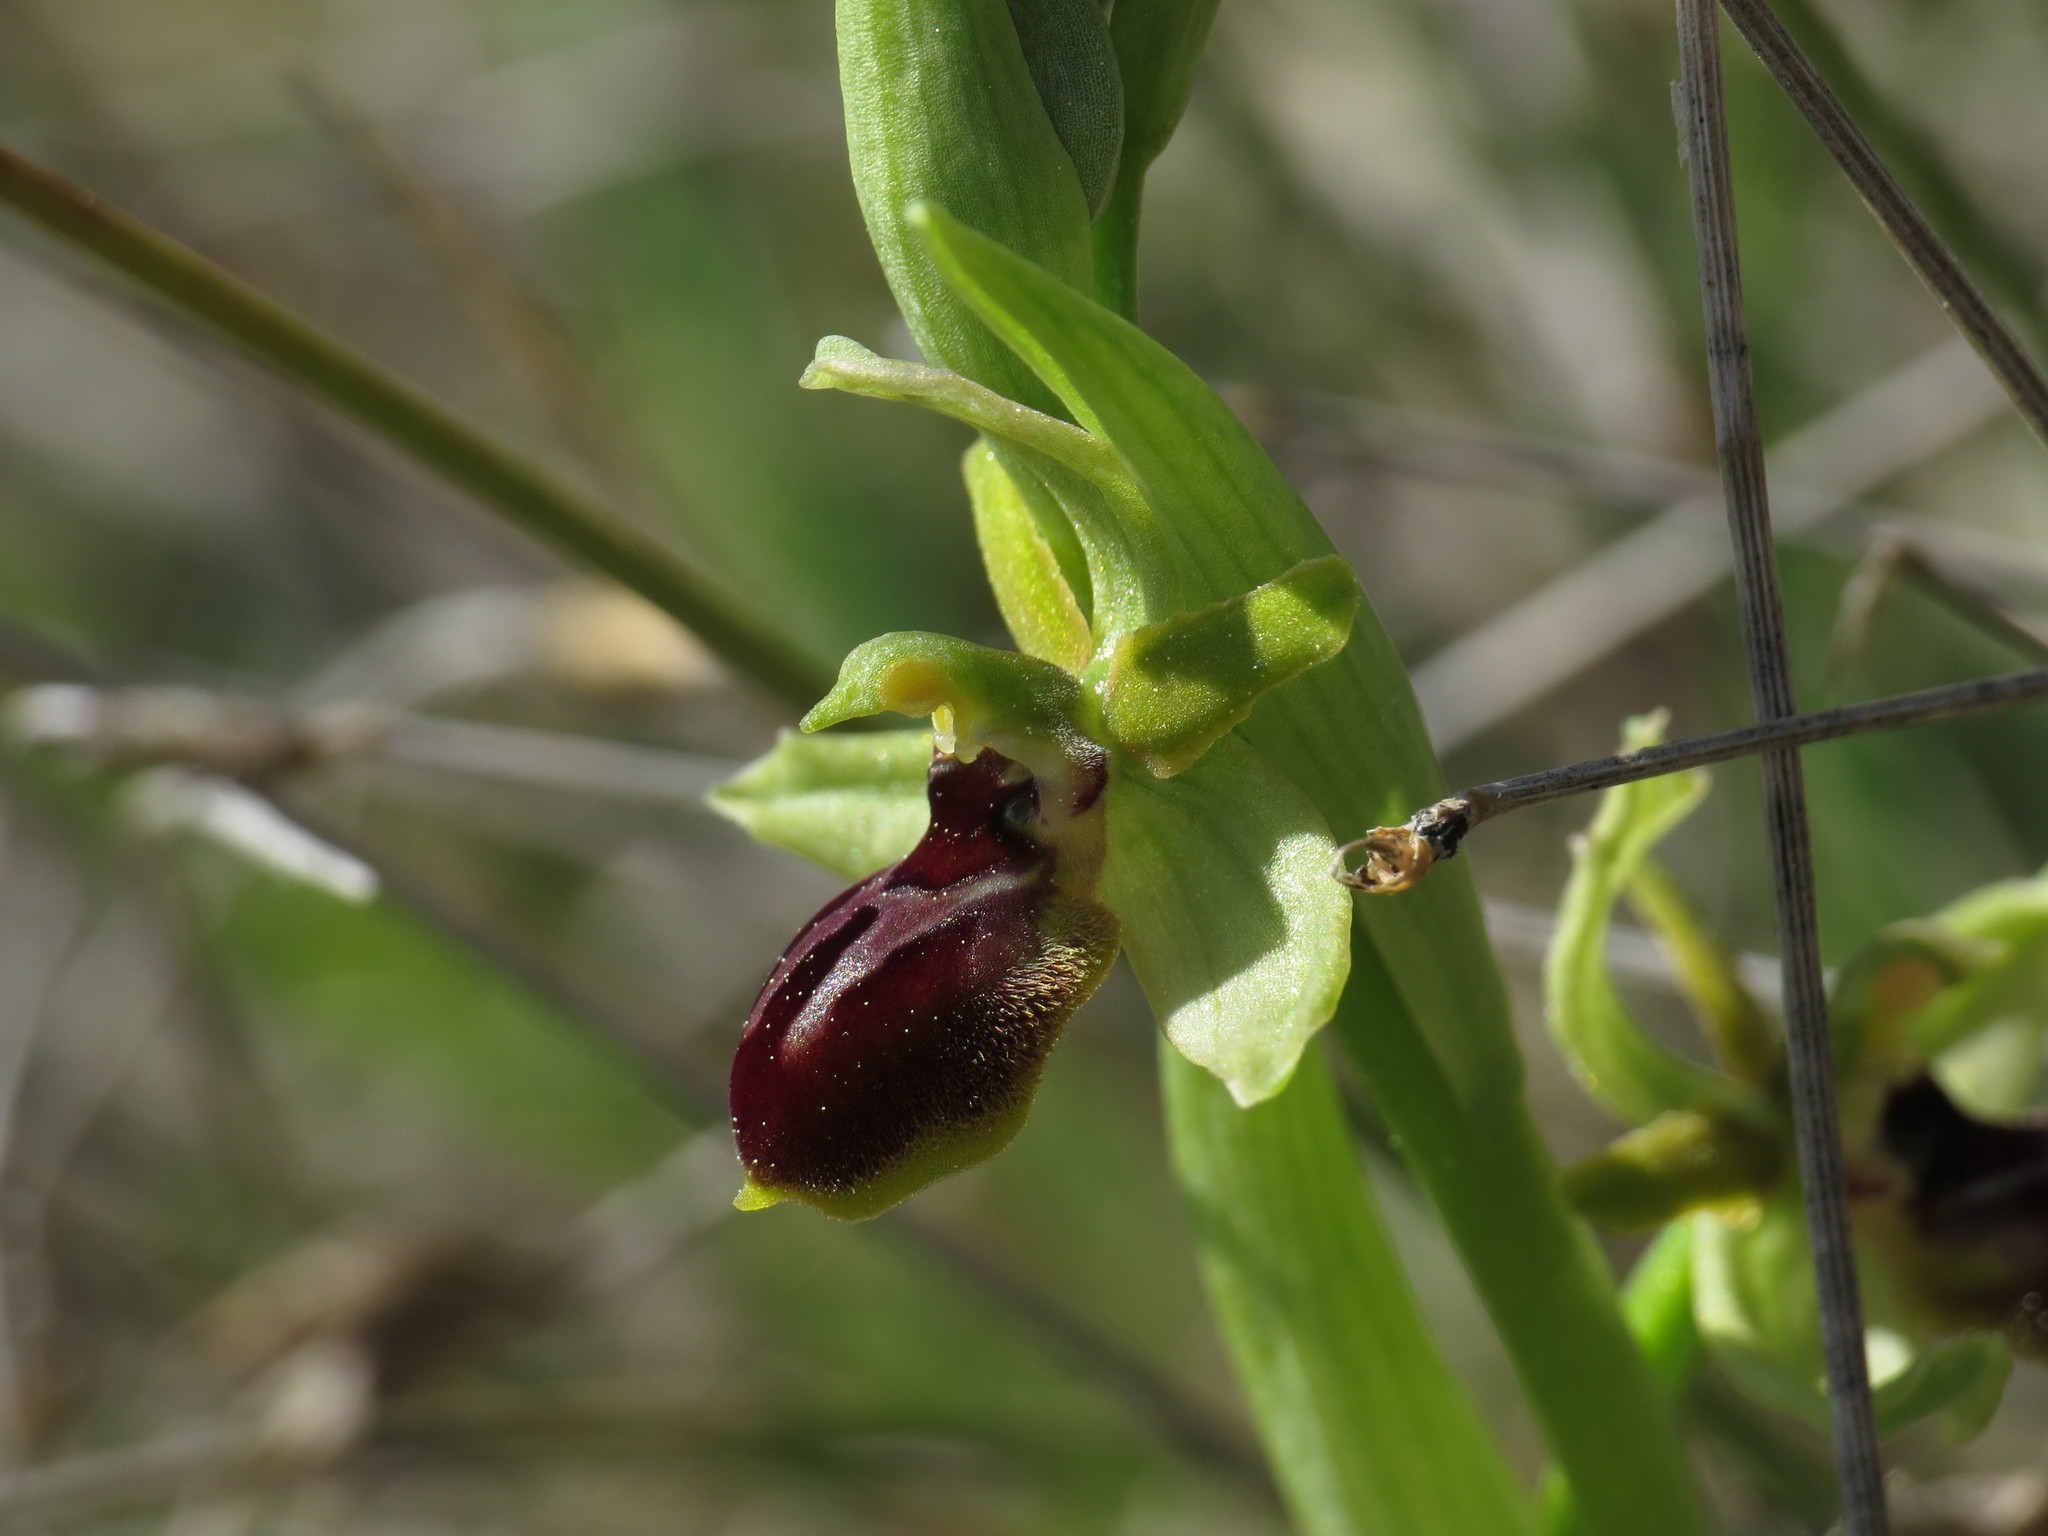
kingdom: Plantae
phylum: Tracheophyta
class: Liliopsida
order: Asparagales
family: Orchidaceae
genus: Ophrys
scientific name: Ophrys sphegodes
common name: Early spider-orchid
